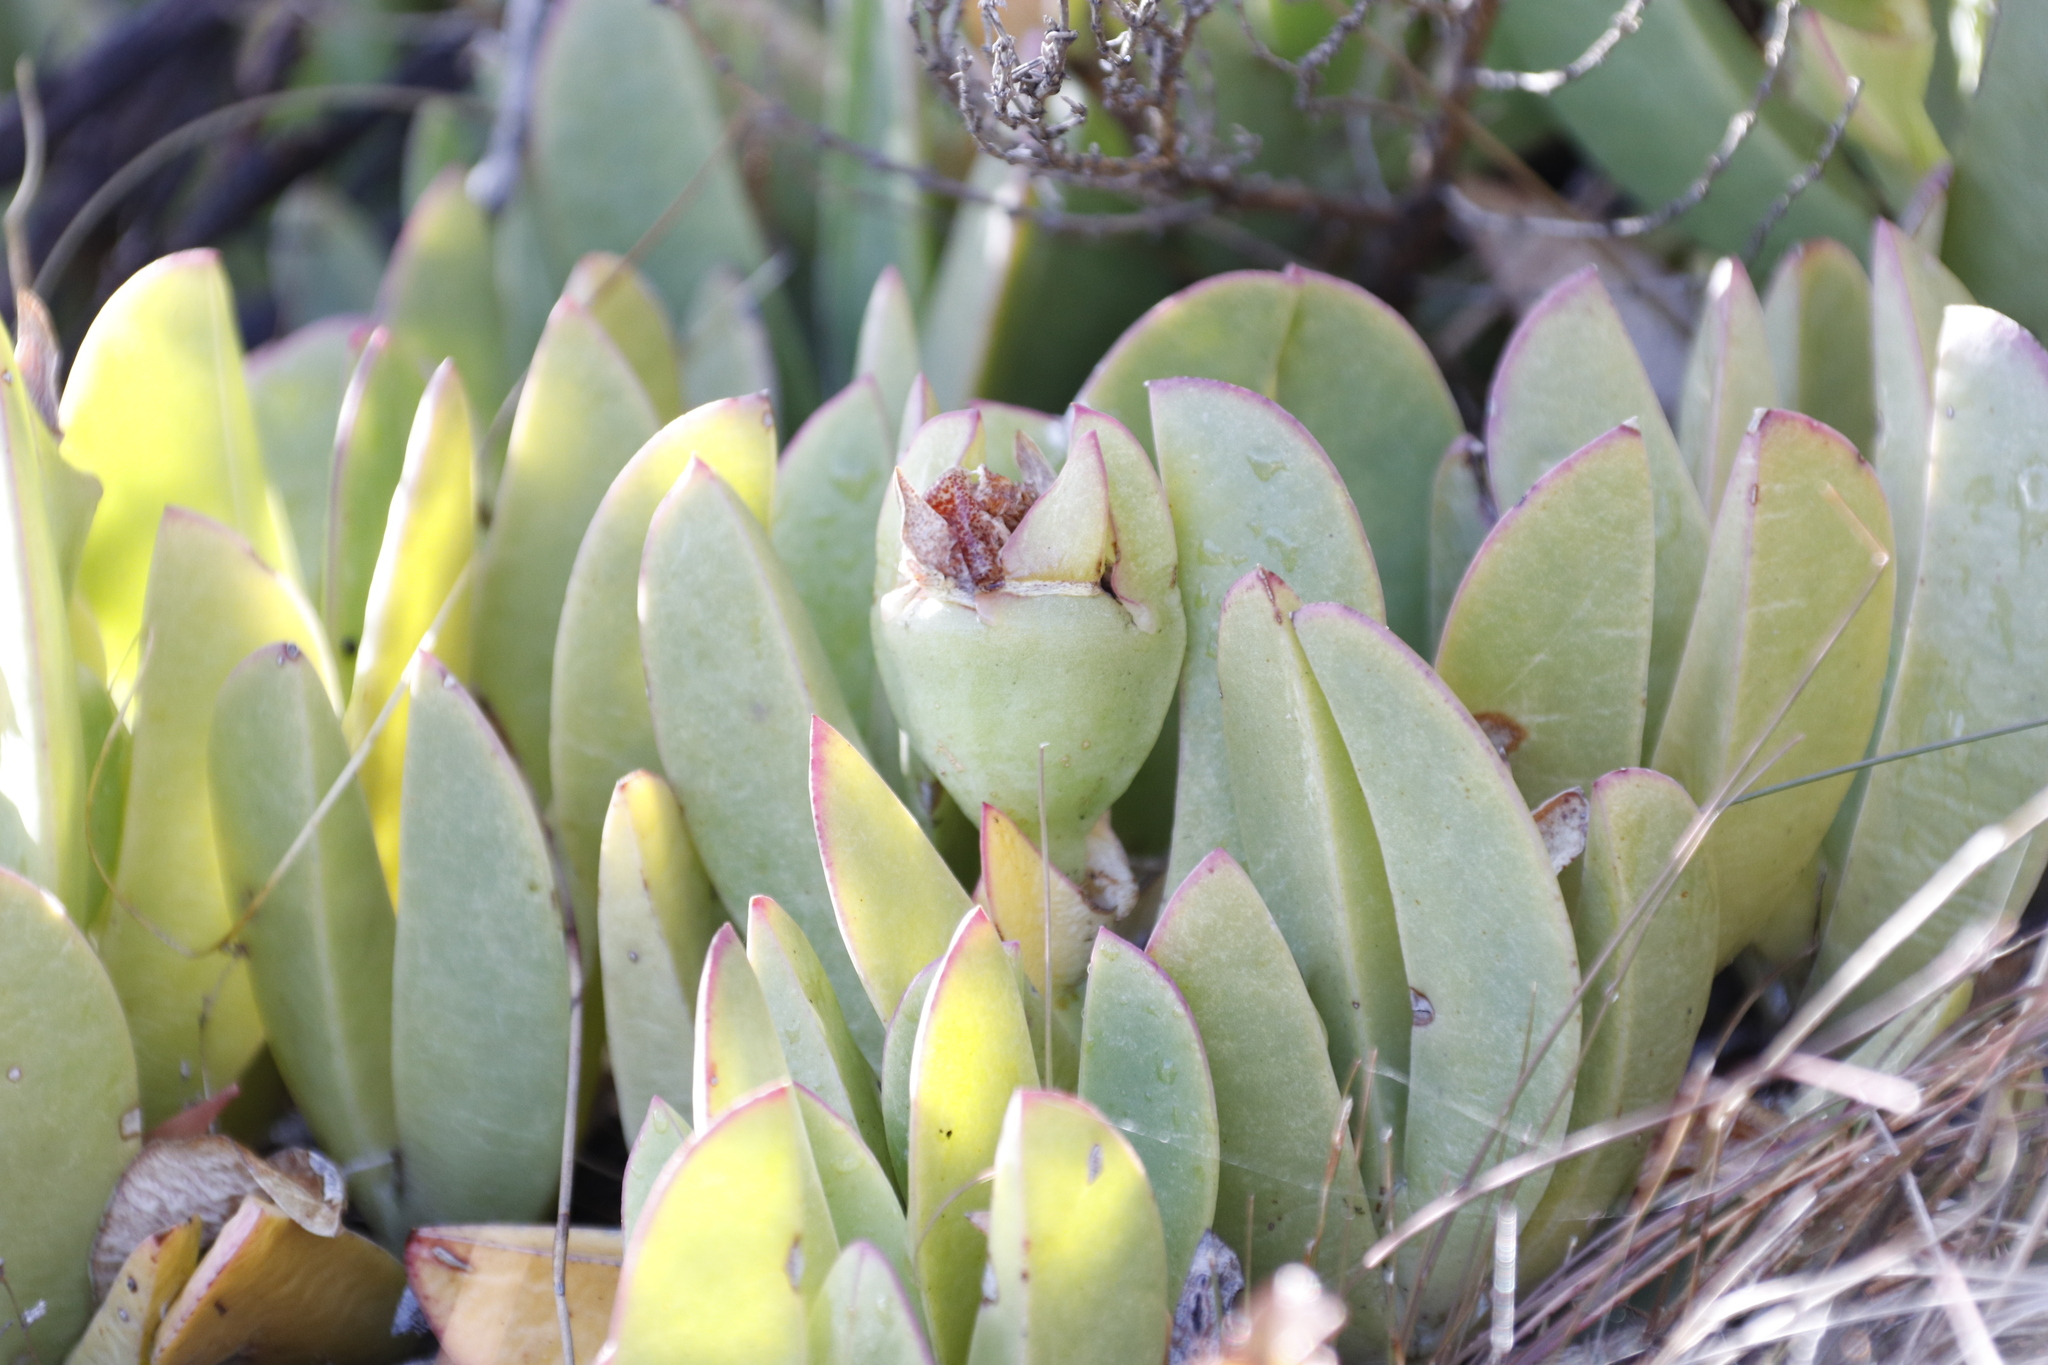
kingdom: Plantae
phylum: Tracheophyta
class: Magnoliopsida
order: Caryophyllales
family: Aizoaceae
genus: Carpobrotus
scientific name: Carpobrotus acinaciformis
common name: Sally-my-handsome
